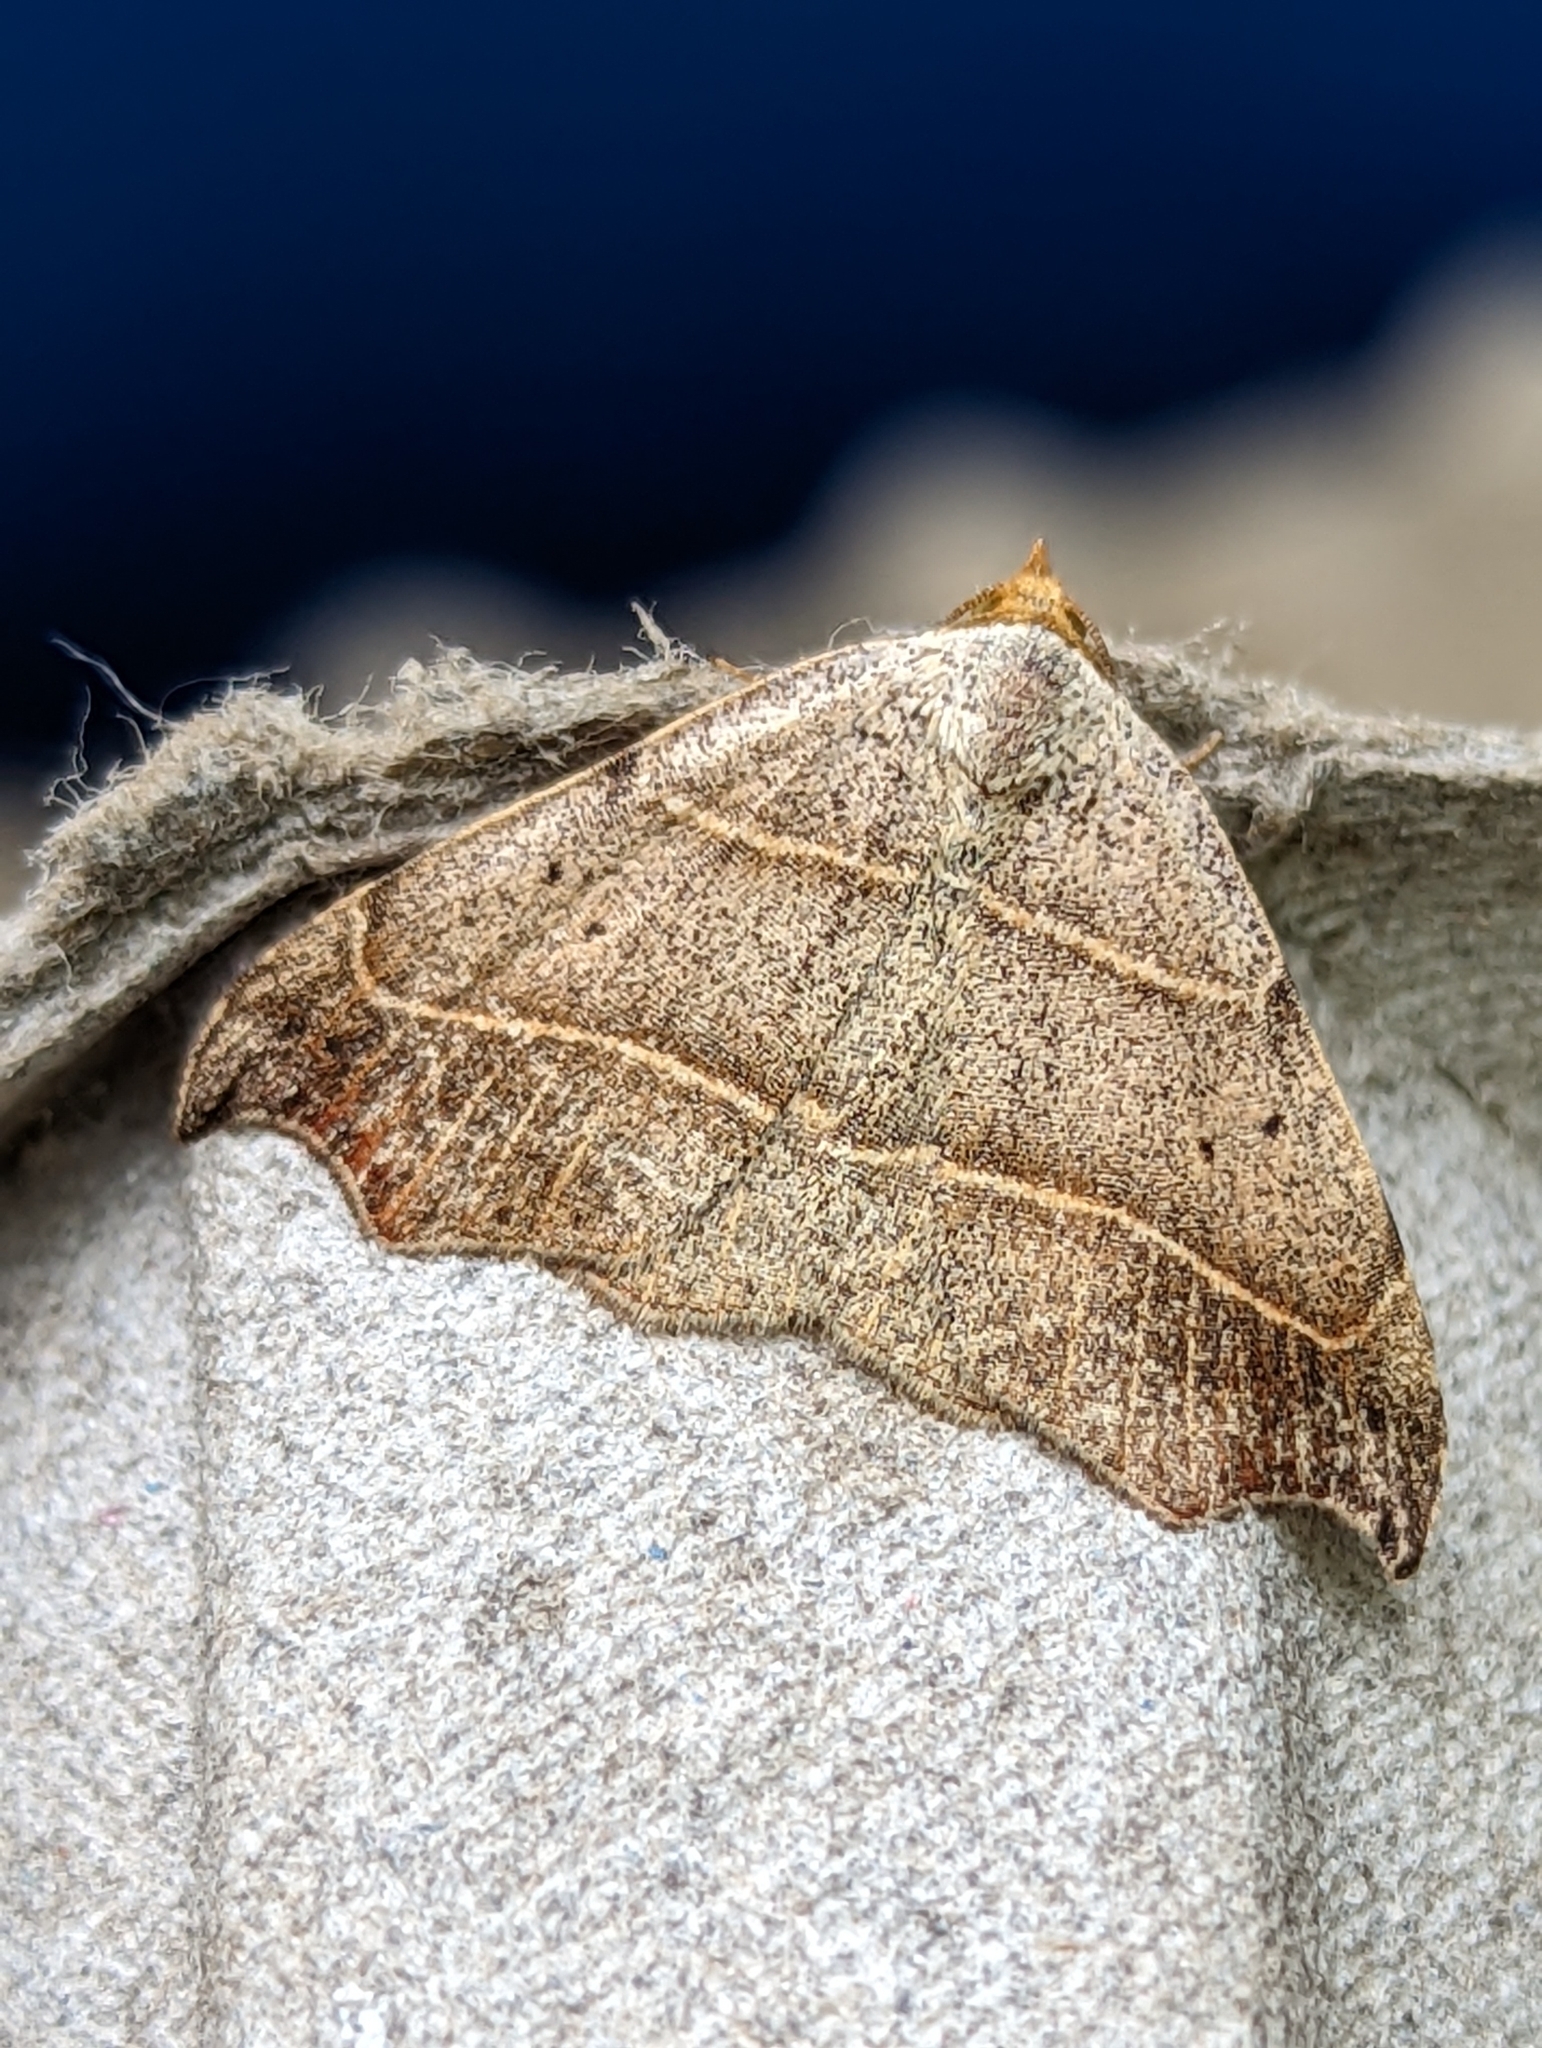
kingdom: Animalia
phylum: Arthropoda
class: Insecta
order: Lepidoptera
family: Erebidae
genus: Laspeyria
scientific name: Laspeyria flexula
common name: Beautiful hook-tip
